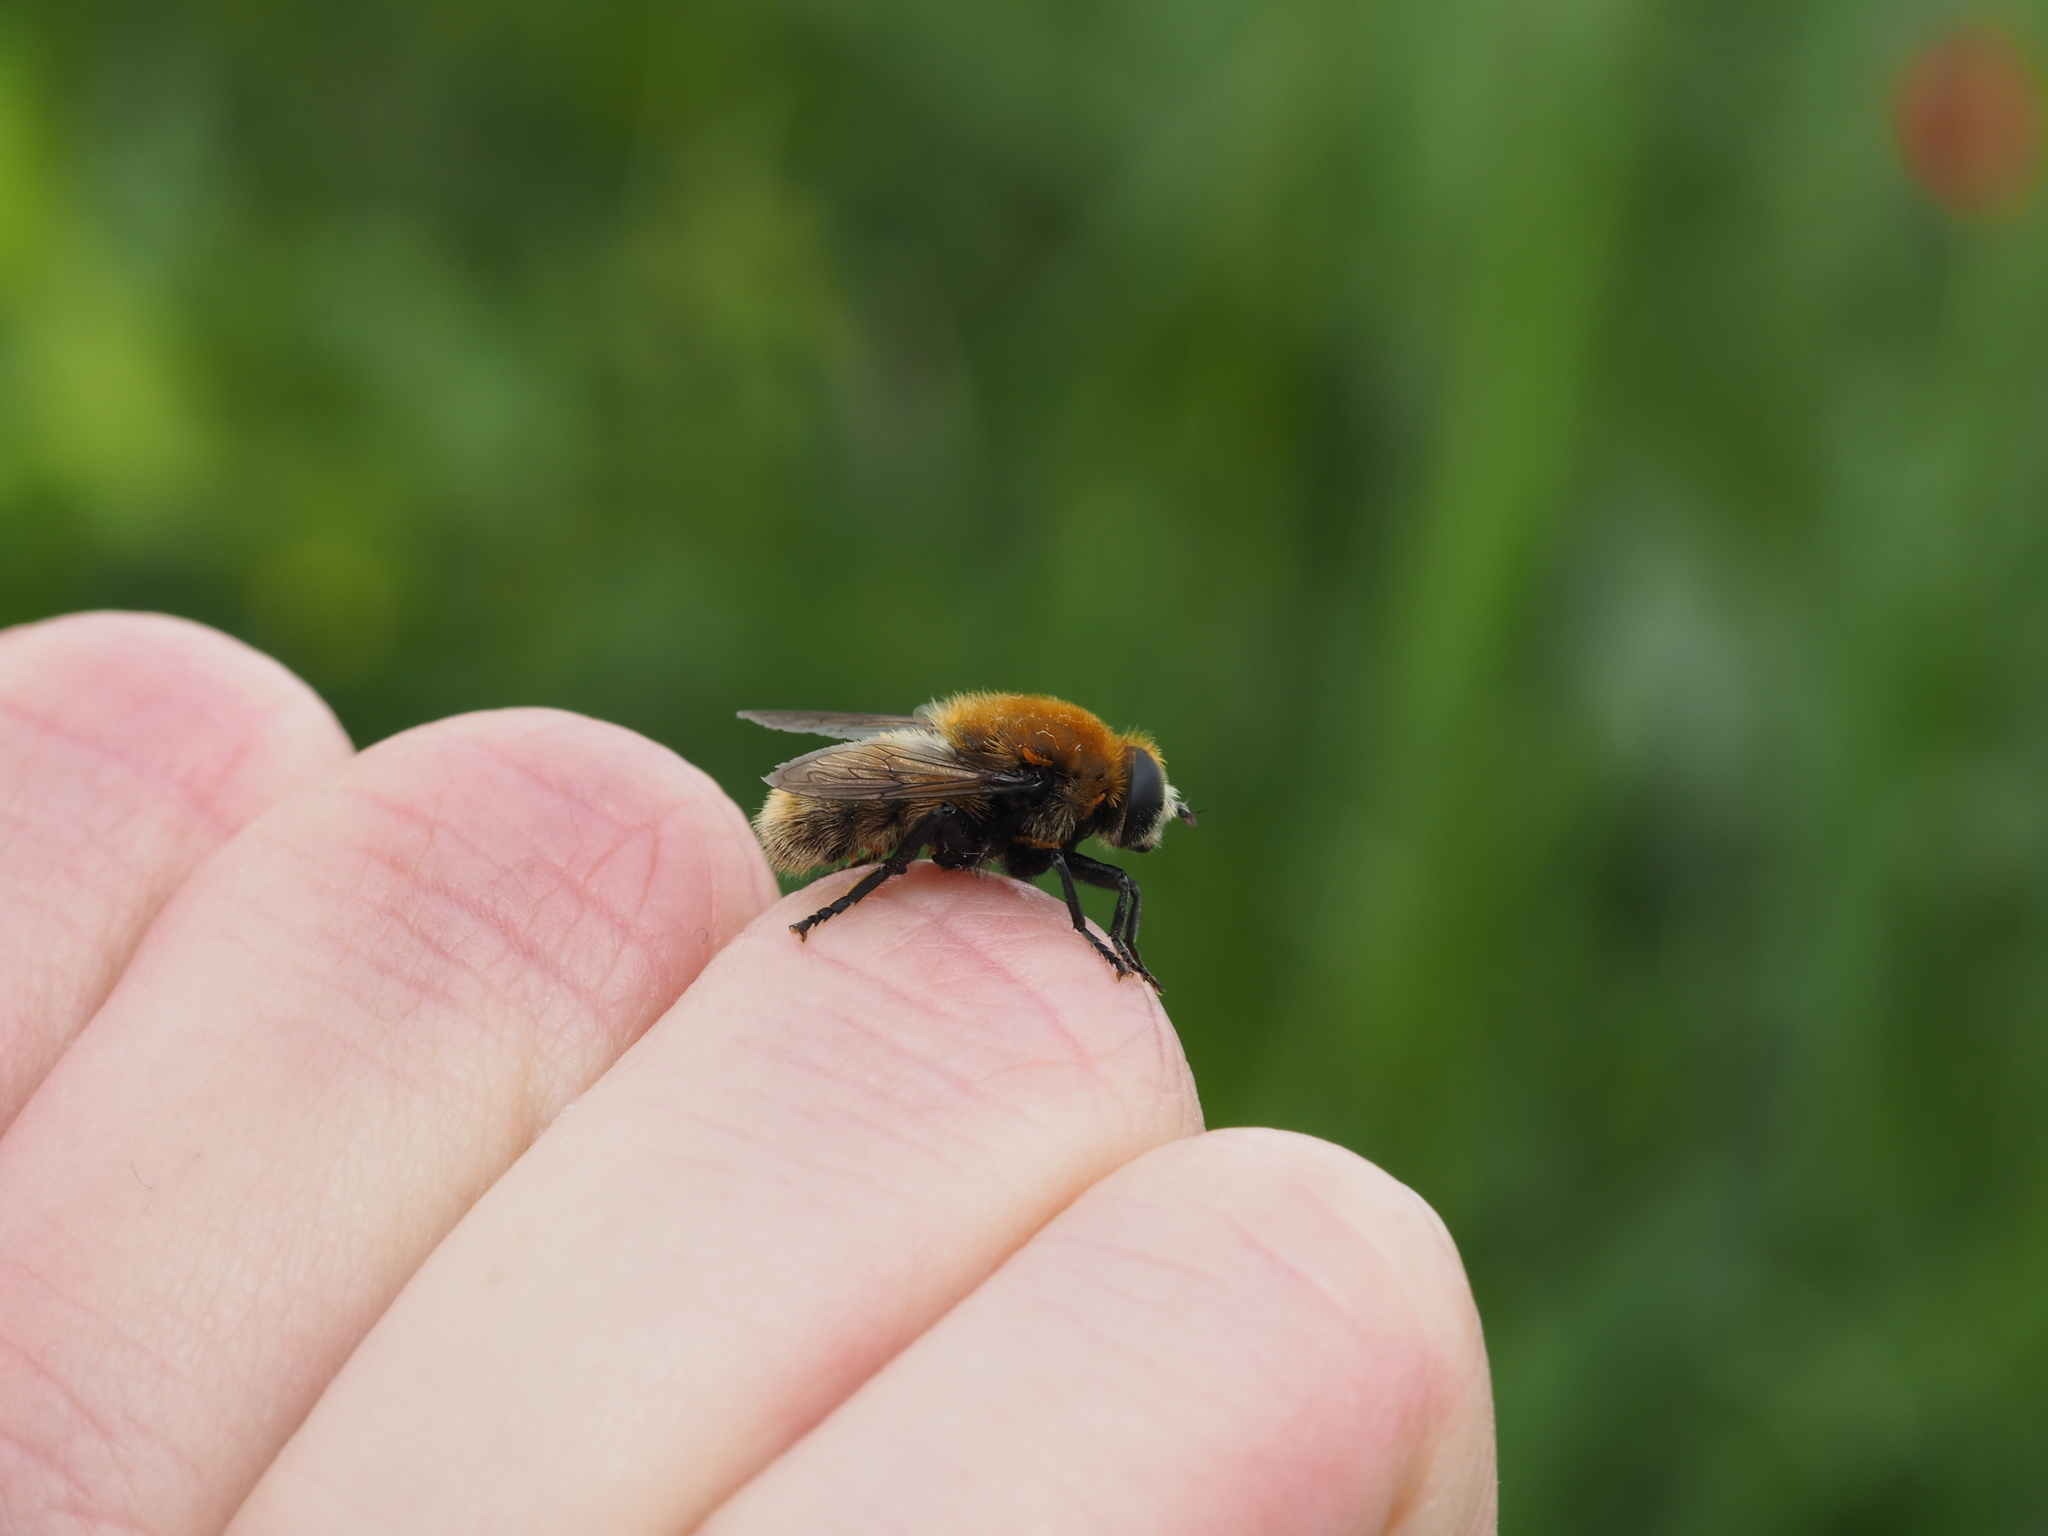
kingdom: Animalia
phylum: Arthropoda
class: Insecta
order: Diptera
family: Syrphidae
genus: Merodon
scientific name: Merodon equestris
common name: Greater bulb-fly
